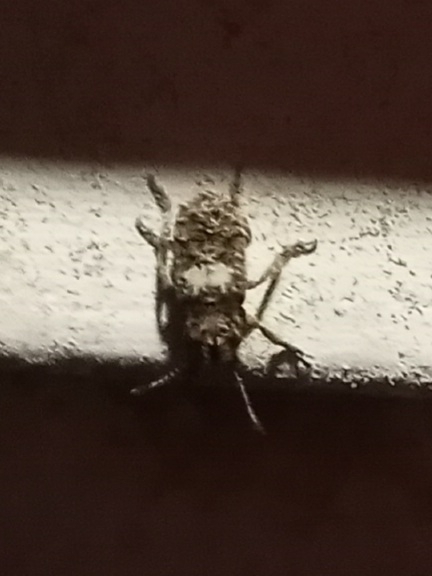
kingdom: Animalia
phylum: Arthropoda
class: Insecta
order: Coleoptera
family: Anthribidae
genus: Toxonotus
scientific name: Toxonotus cornutus
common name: Fungus weevil
